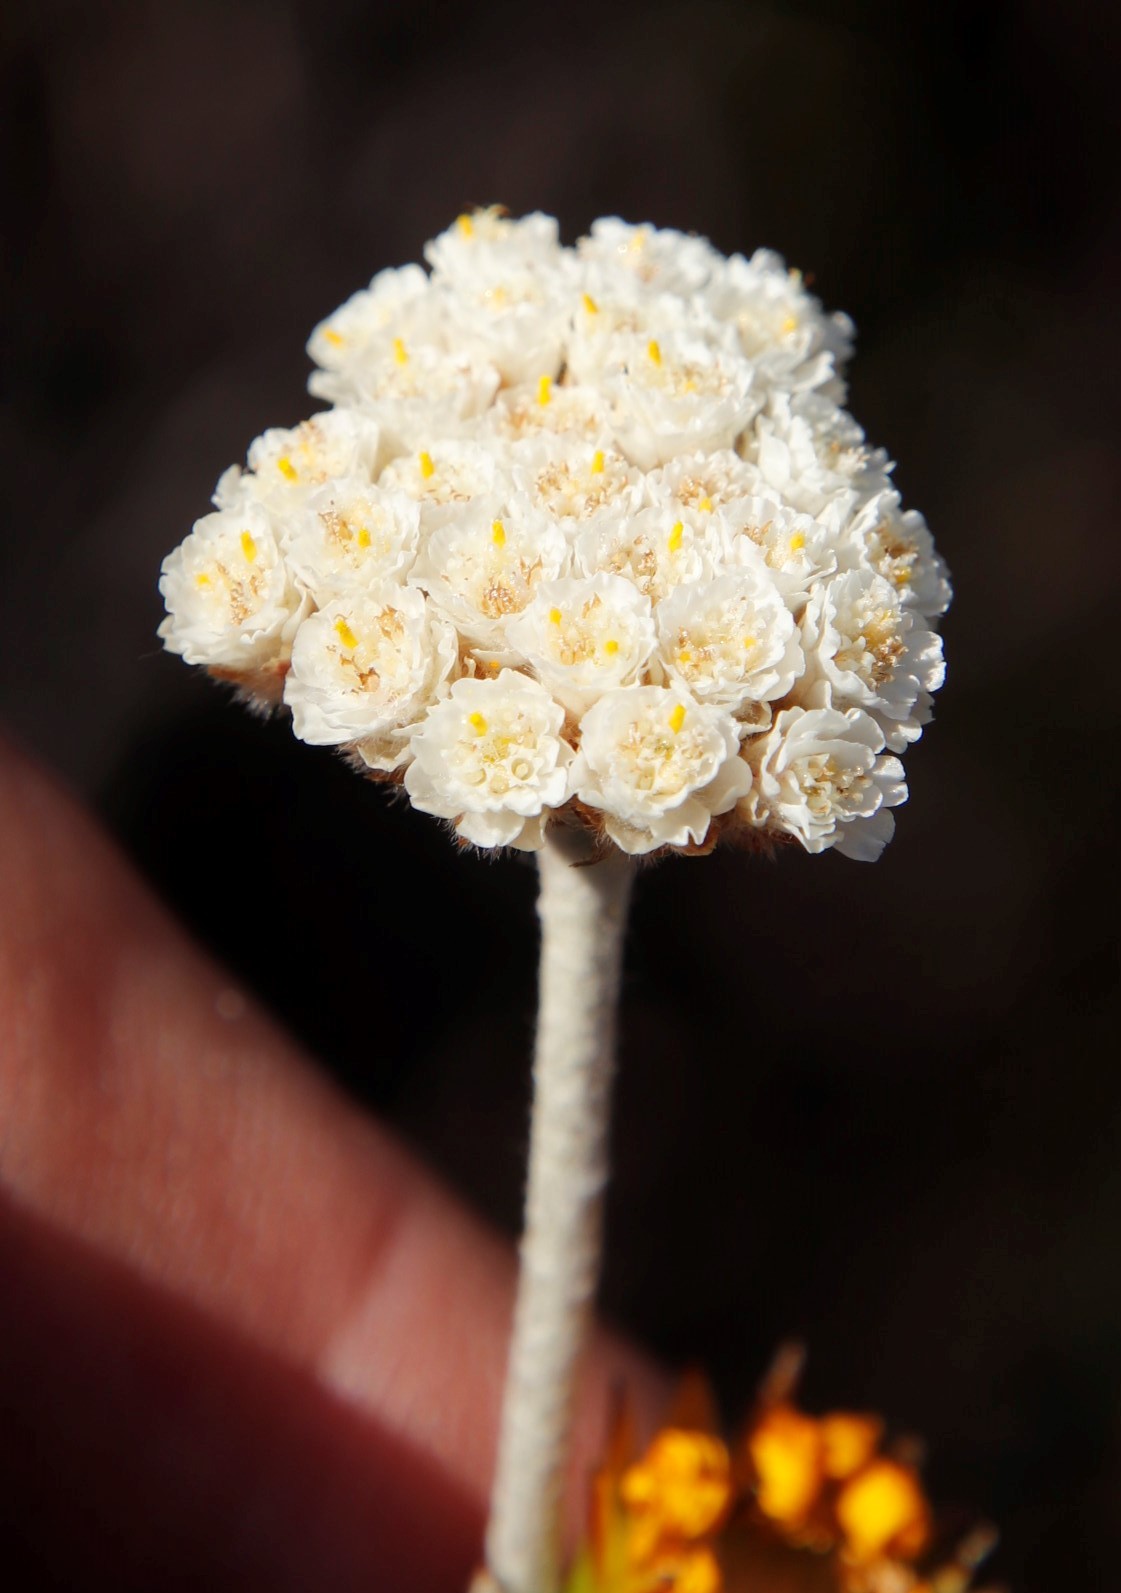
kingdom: Plantae
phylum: Tracheophyta
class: Magnoliopsida
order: Asterales
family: Asteraceae
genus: Anaxeton
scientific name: Anaxeton laeve
